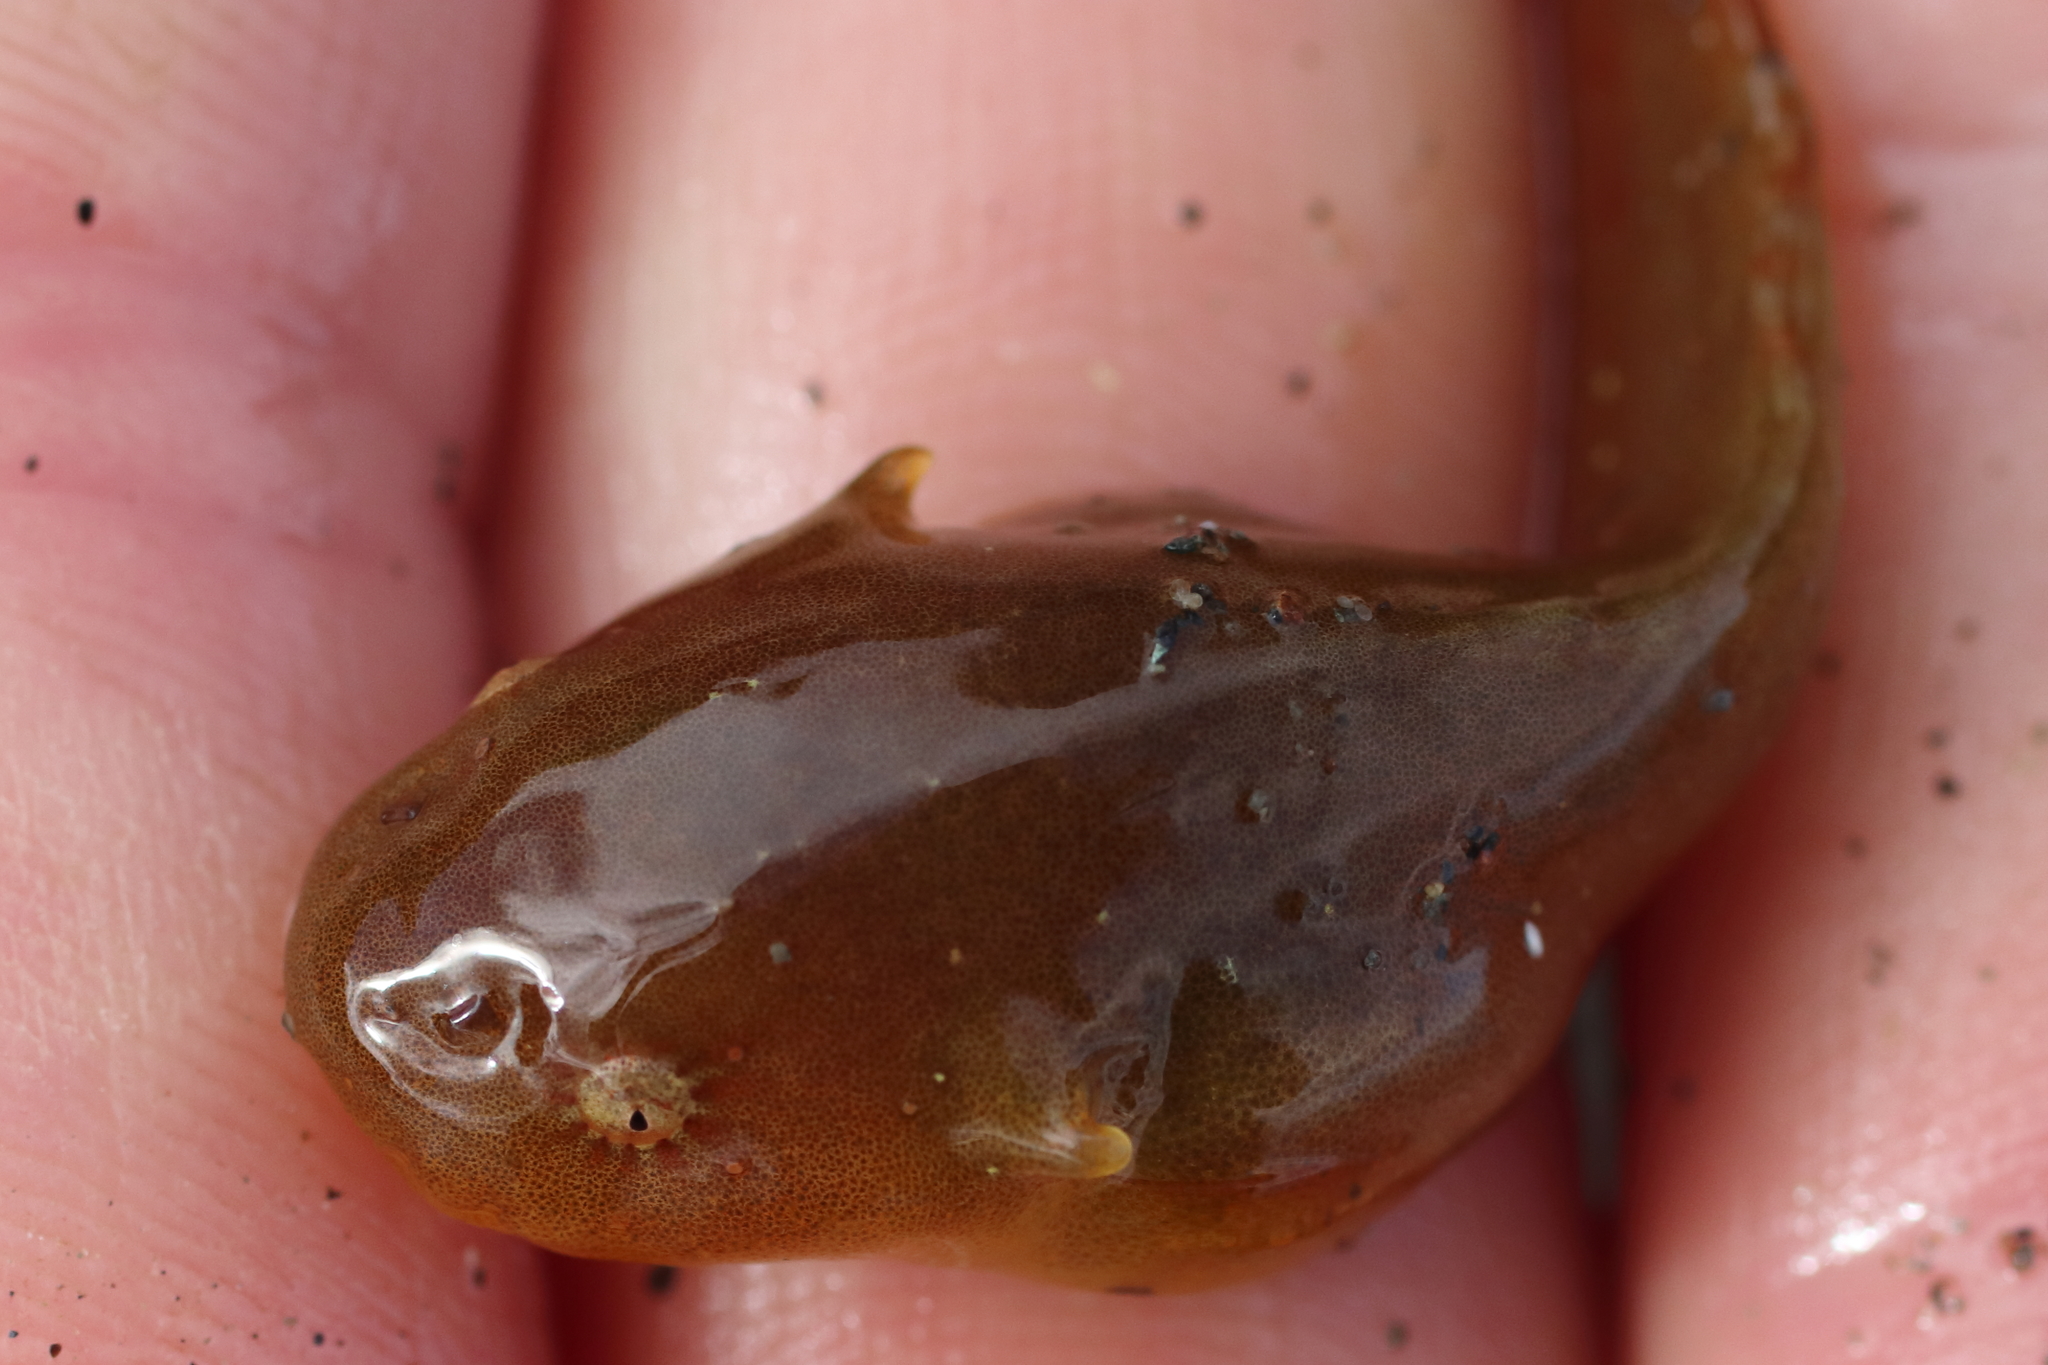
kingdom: Animalia
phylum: Chordata
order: Scorpaeniformes
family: Liparidae
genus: Liparis
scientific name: Liparis mucosus
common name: Slimy snailfish
